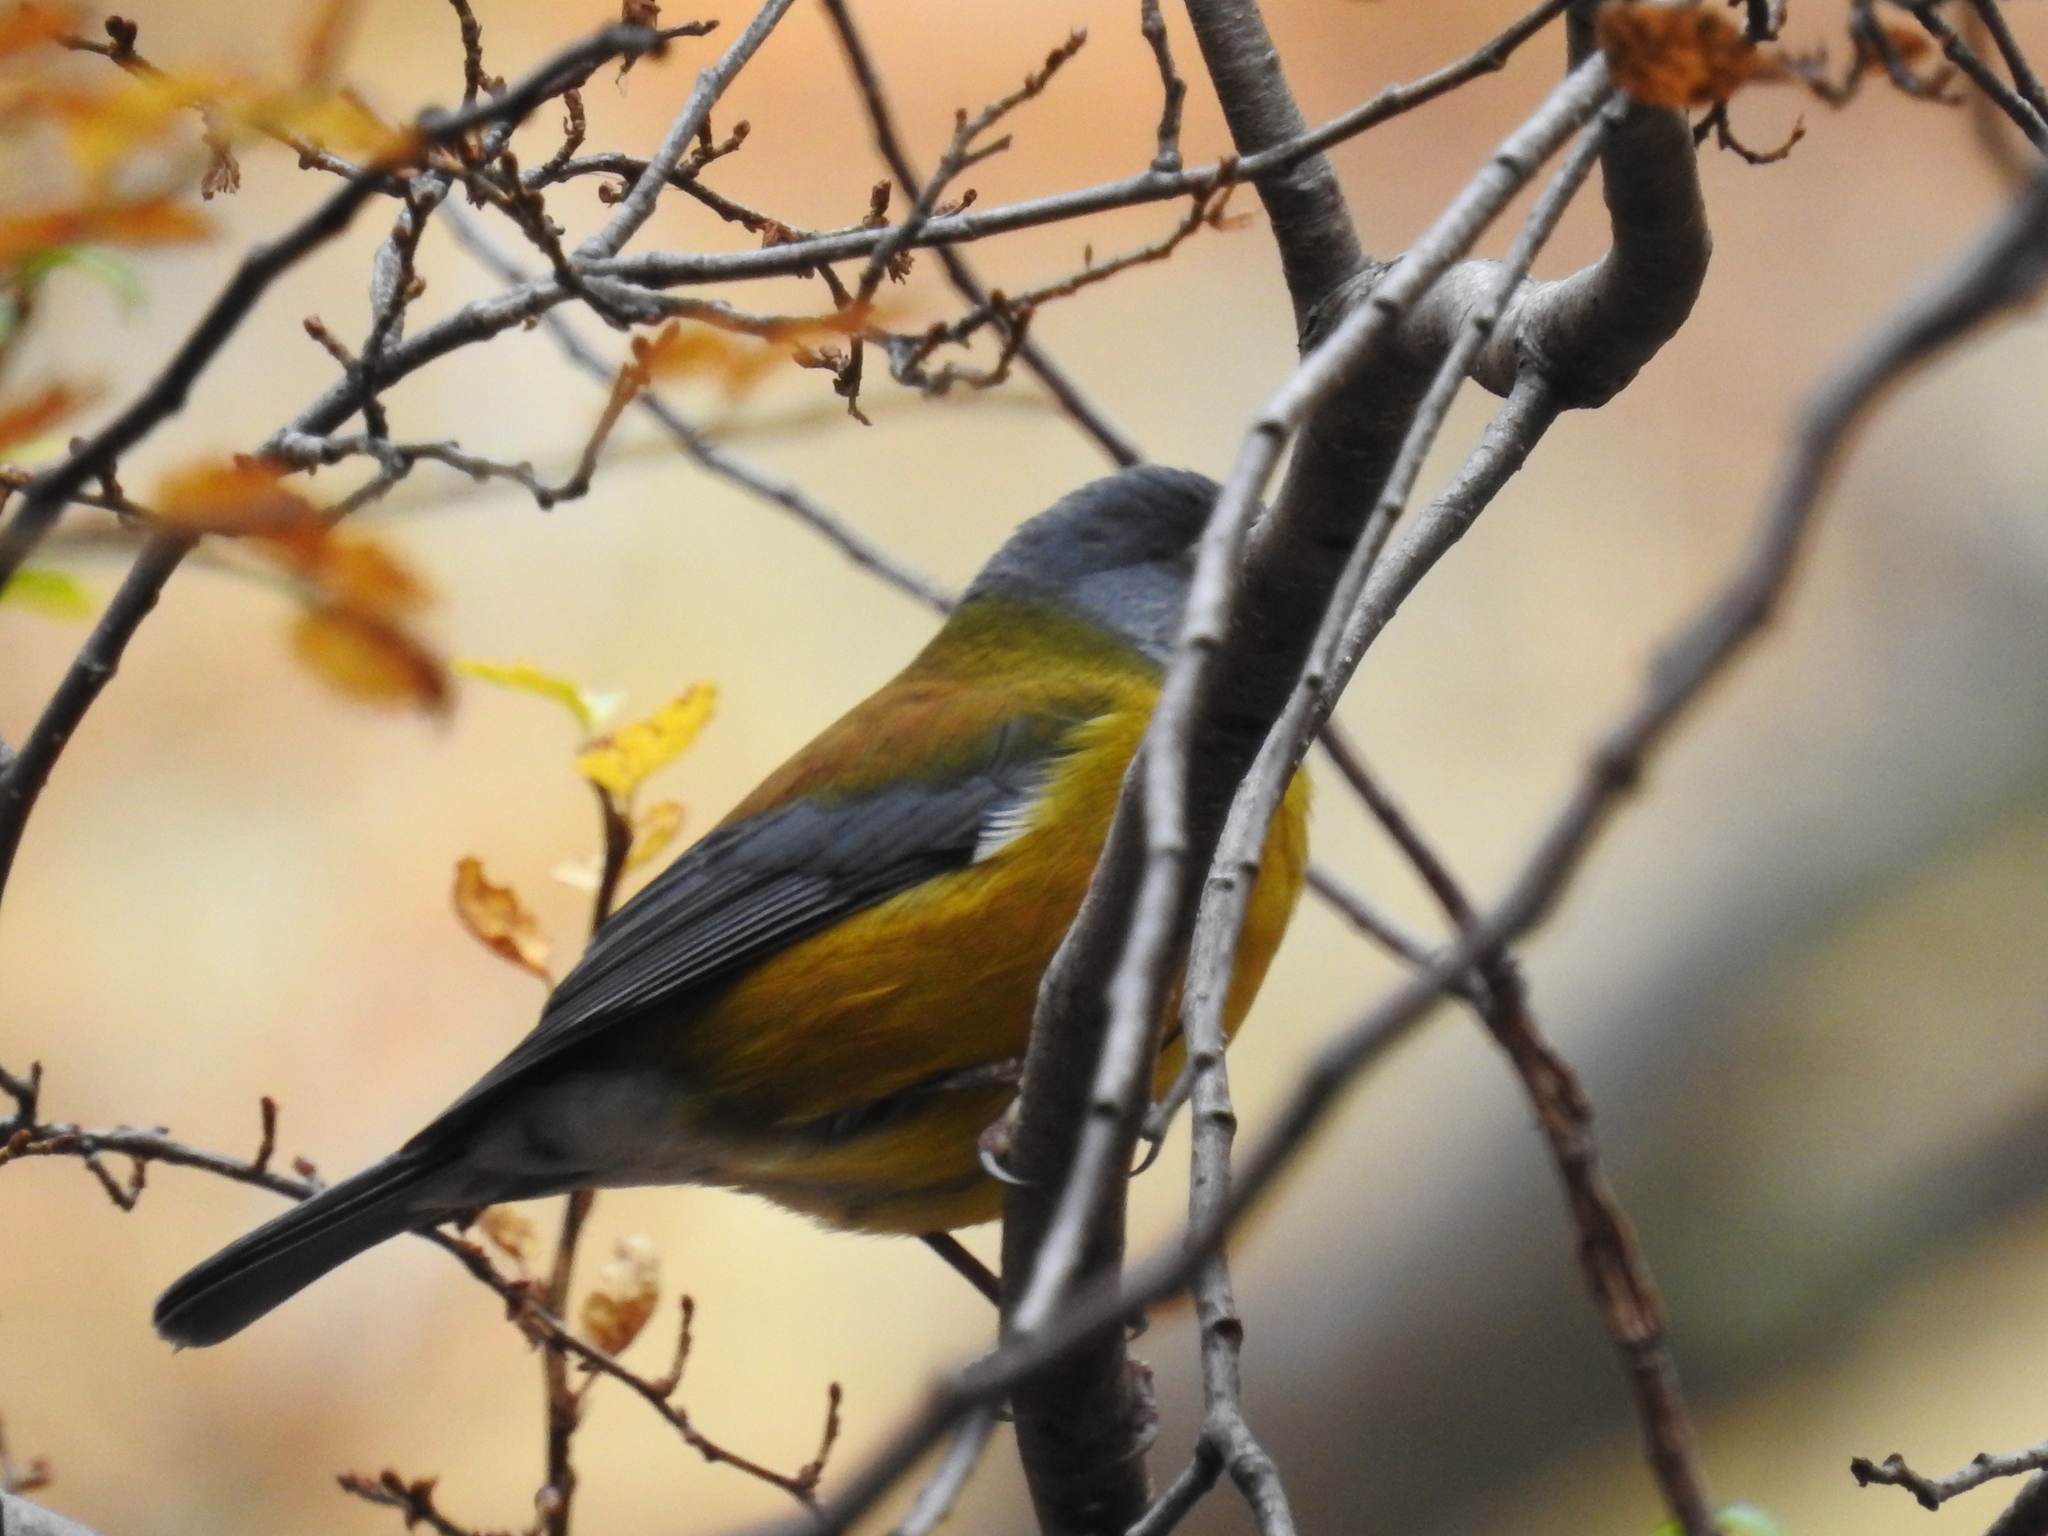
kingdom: Animalia
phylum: Chordata
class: Aves
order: Passeriformes
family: Thraupidae
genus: Phrygilus
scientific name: Phrygilus patagonicus
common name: Patagonian sierra finch
